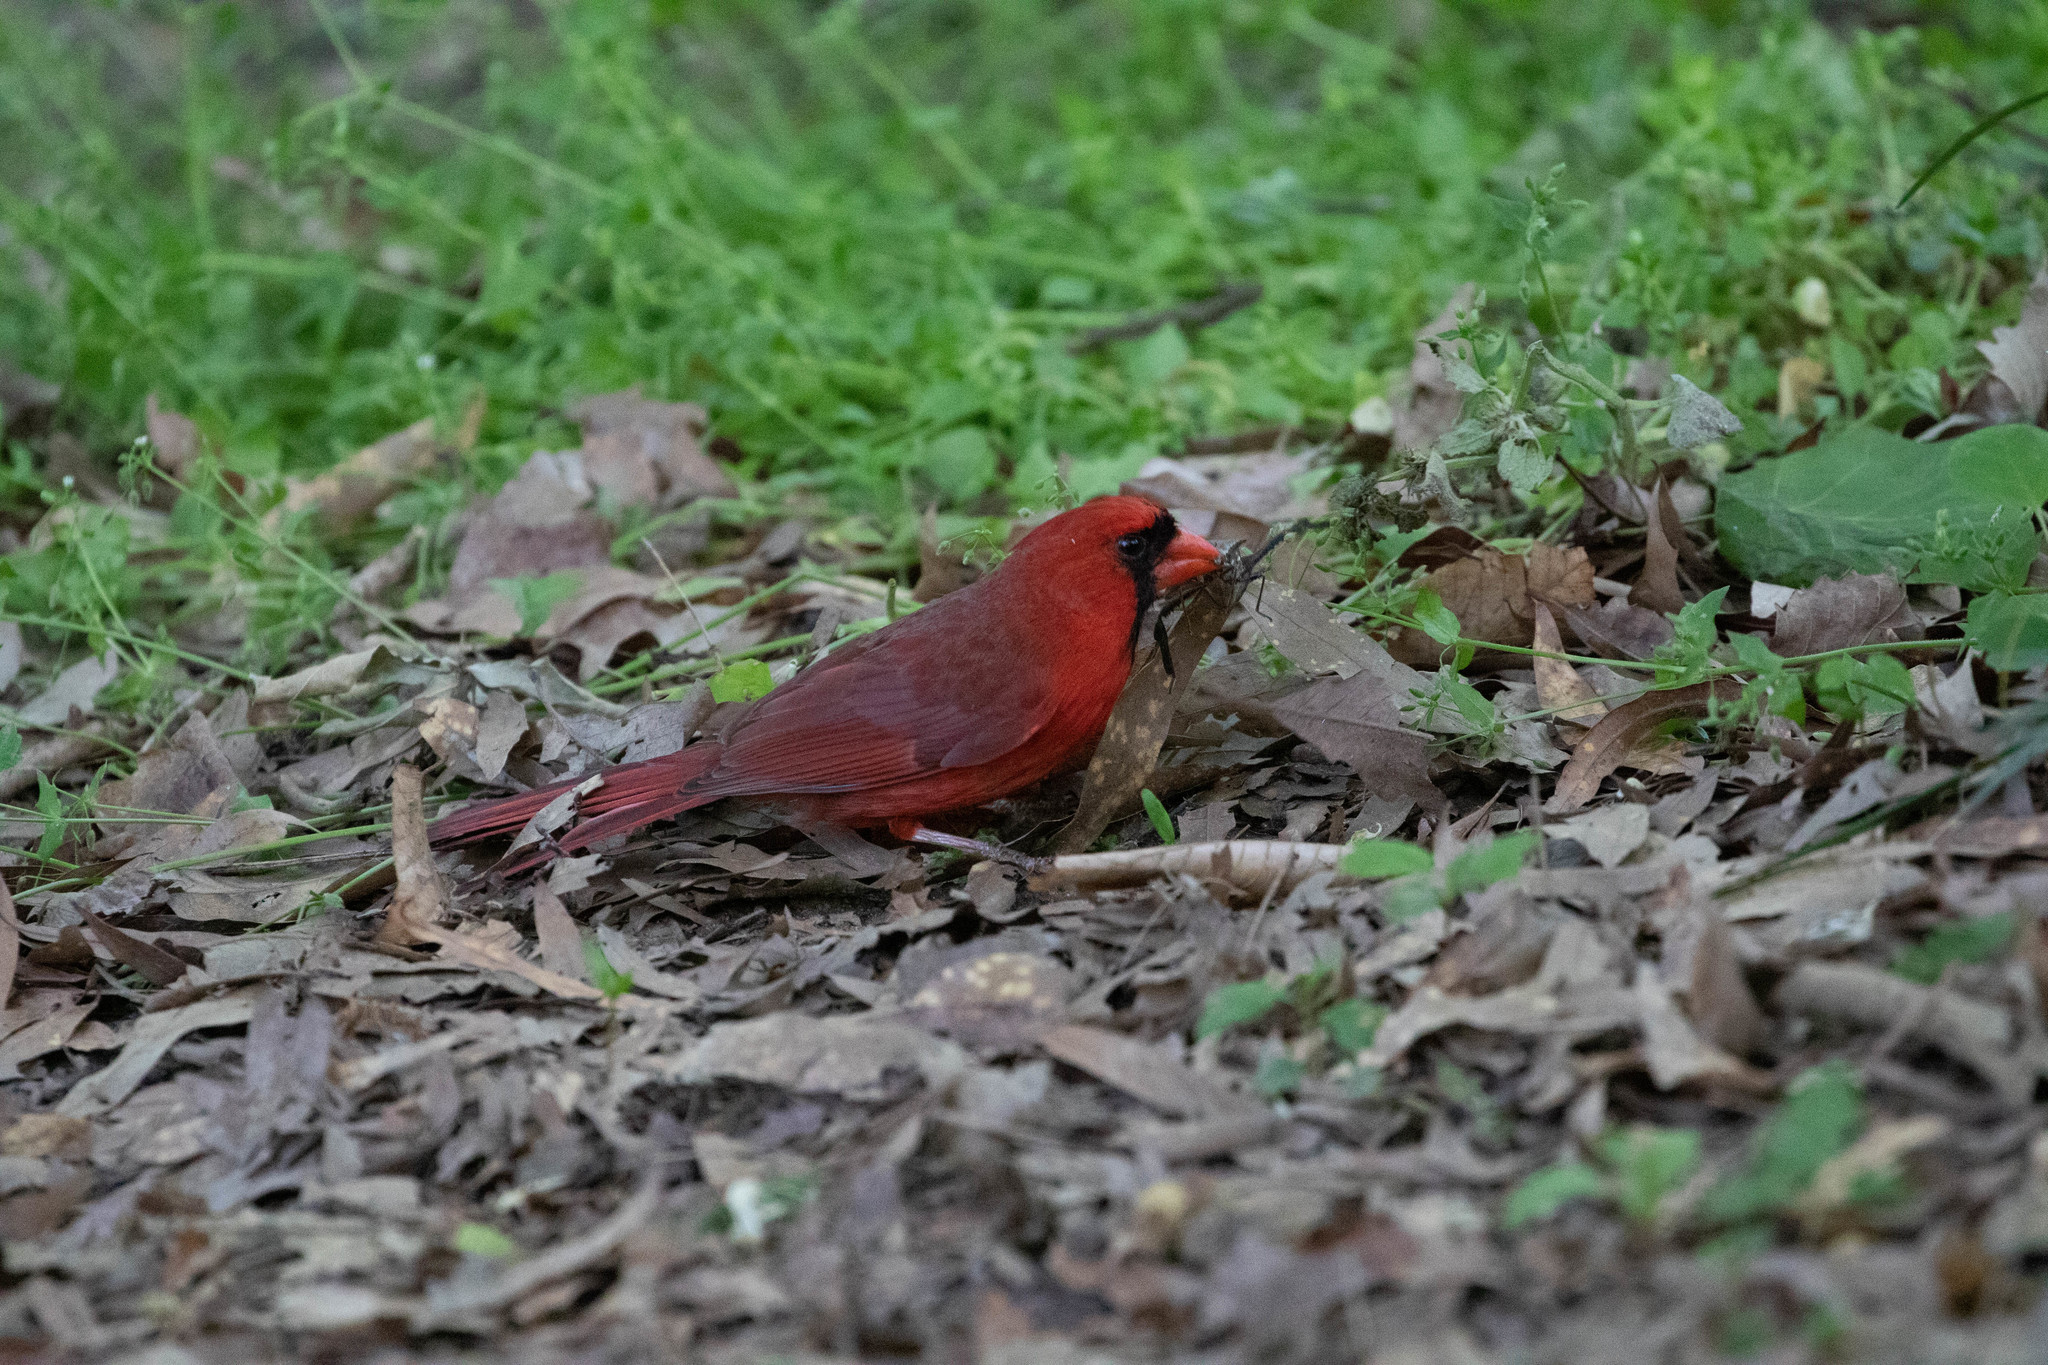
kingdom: Animalia
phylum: Chordata
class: Aves
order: Passeriformes
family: Cardinalidae
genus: Cardinalis
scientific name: Cardinalis cardinalis
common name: Northern cardinal
